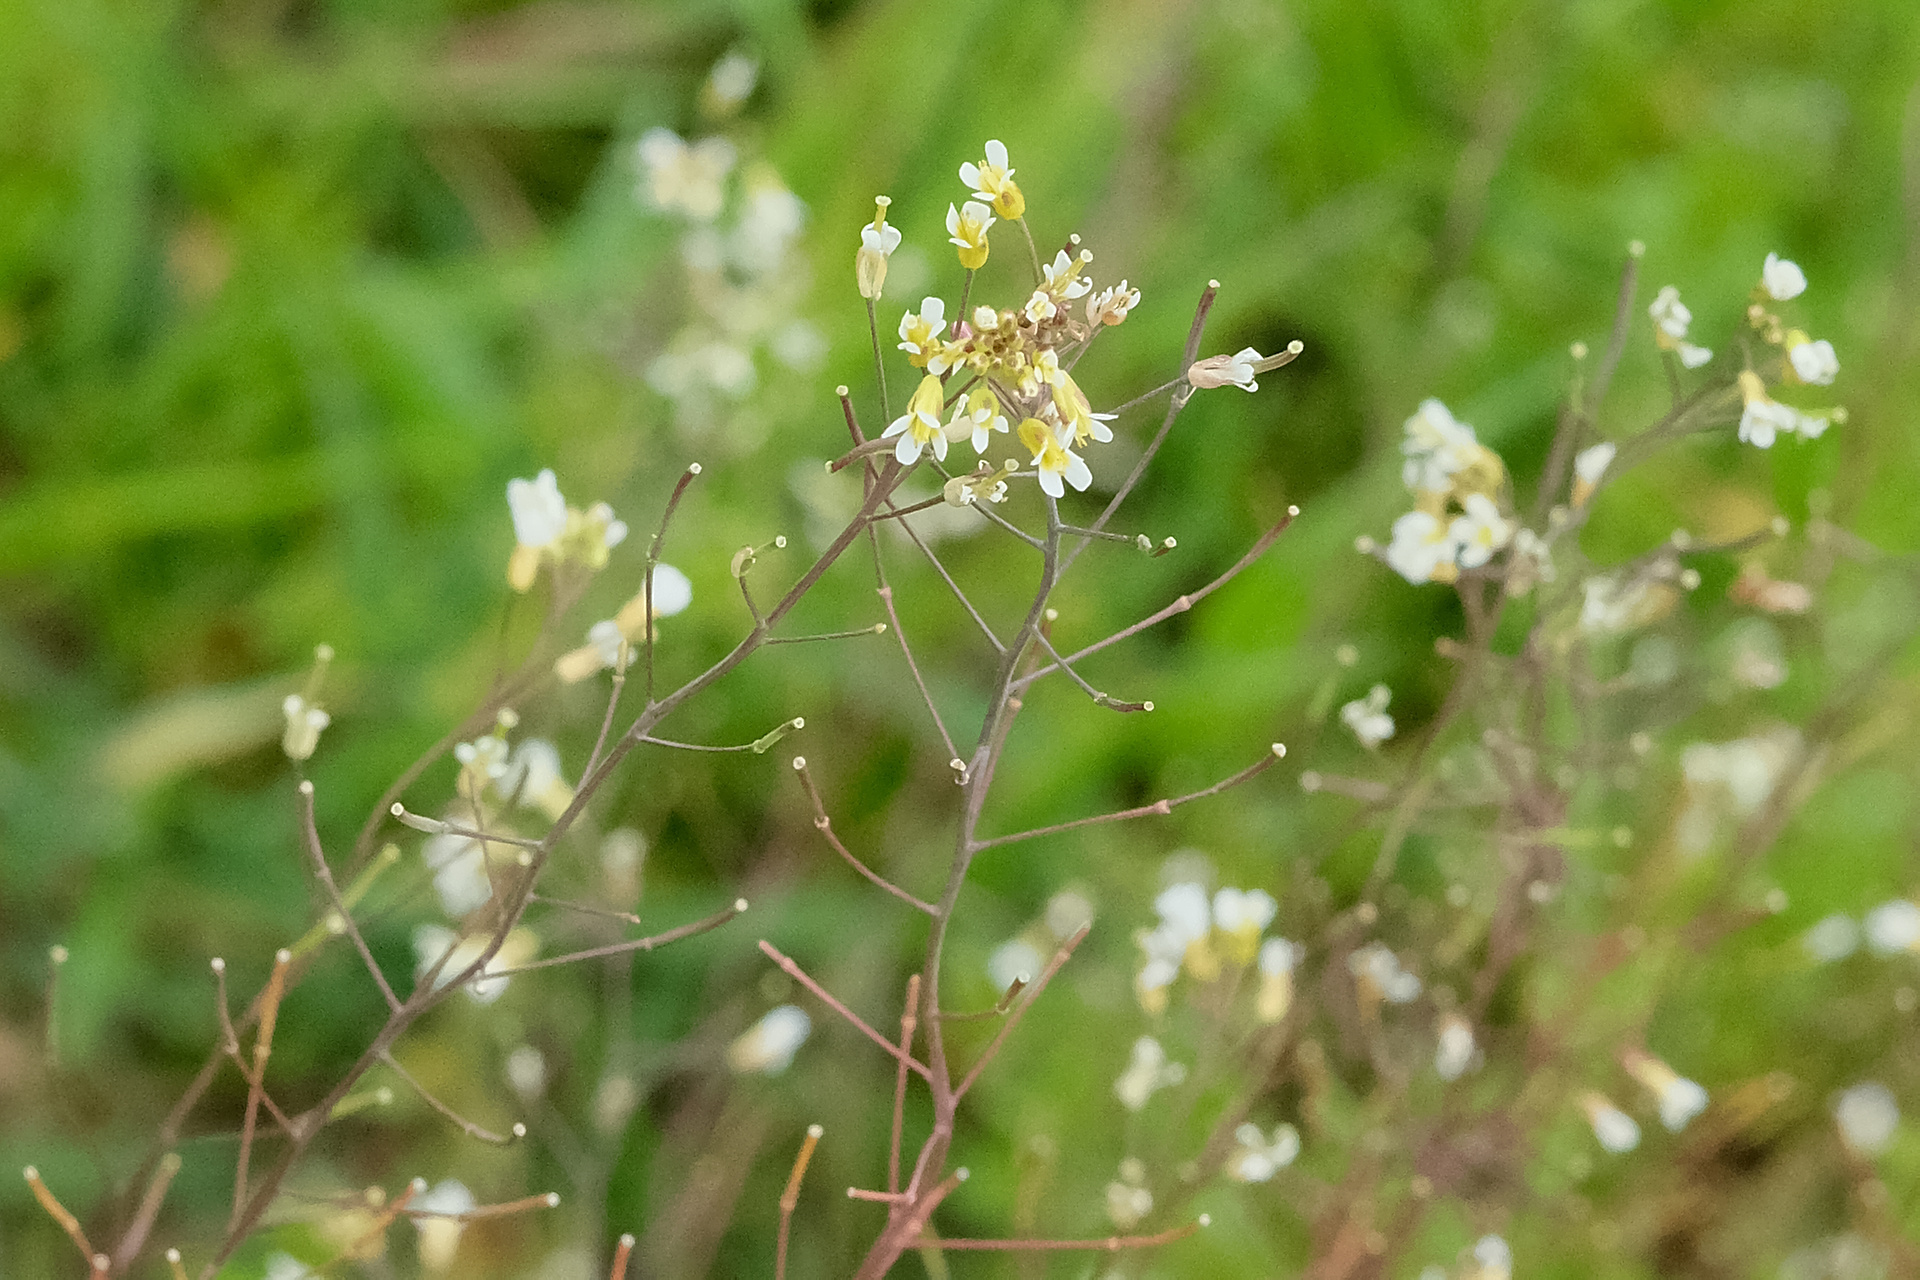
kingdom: Plantae
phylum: Tracheophyta
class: Magnoliopsida
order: Brassicales
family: Brassicaceae
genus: Arabidopsis
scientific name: Arabidopsis thaliana
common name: Thale cress
